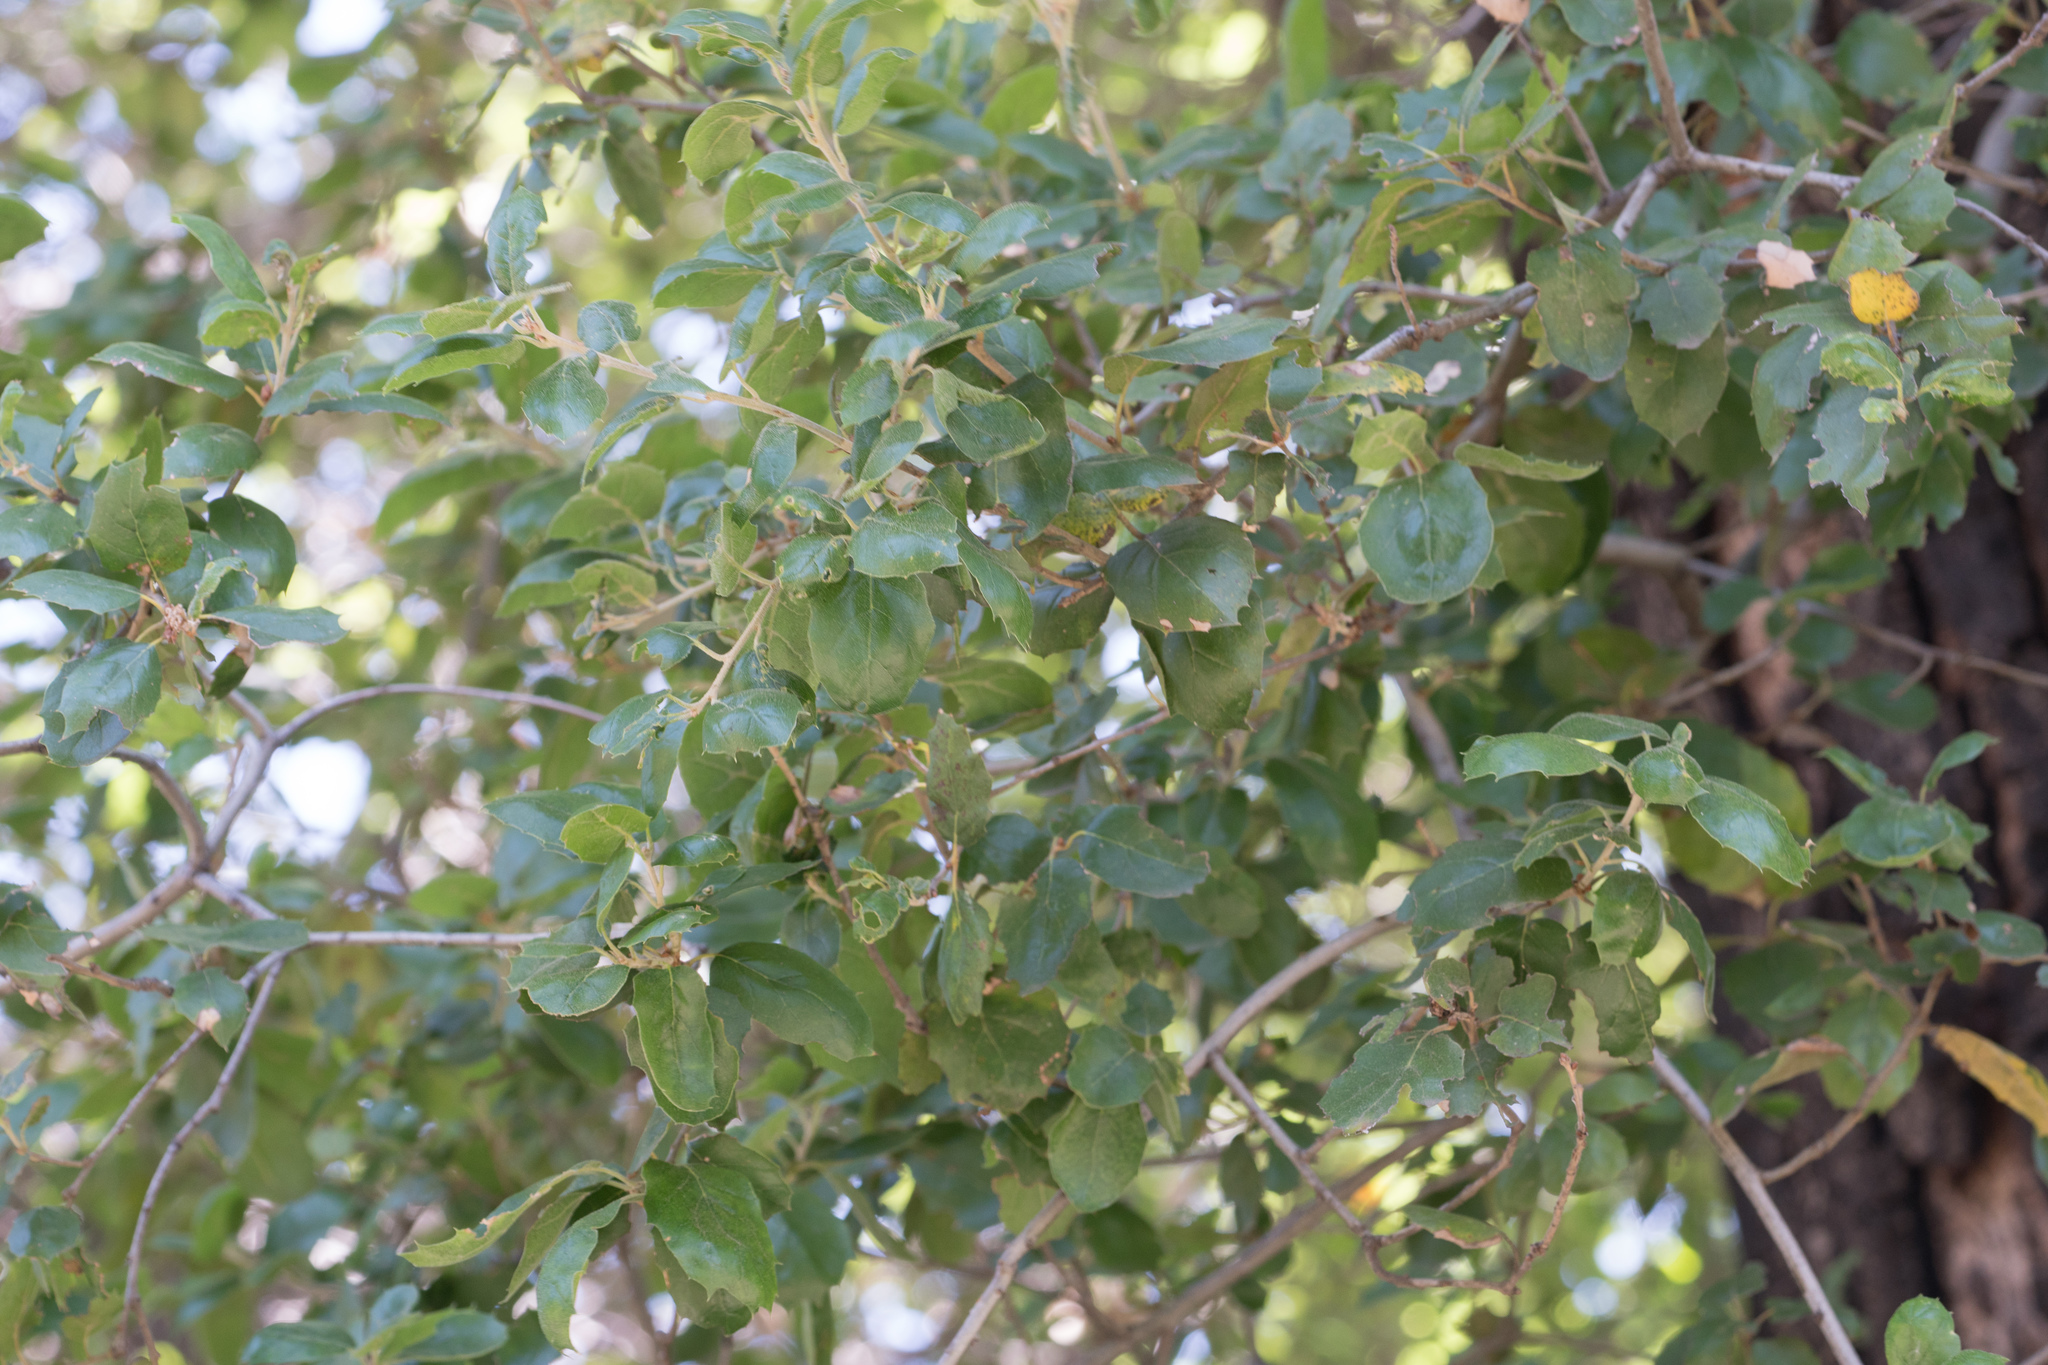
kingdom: Plantae
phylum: Tracheophyta
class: Magnoliopsida
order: Fagales
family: Fagaceae
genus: Quercus
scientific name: Quercus agrifolia
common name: California live oak
